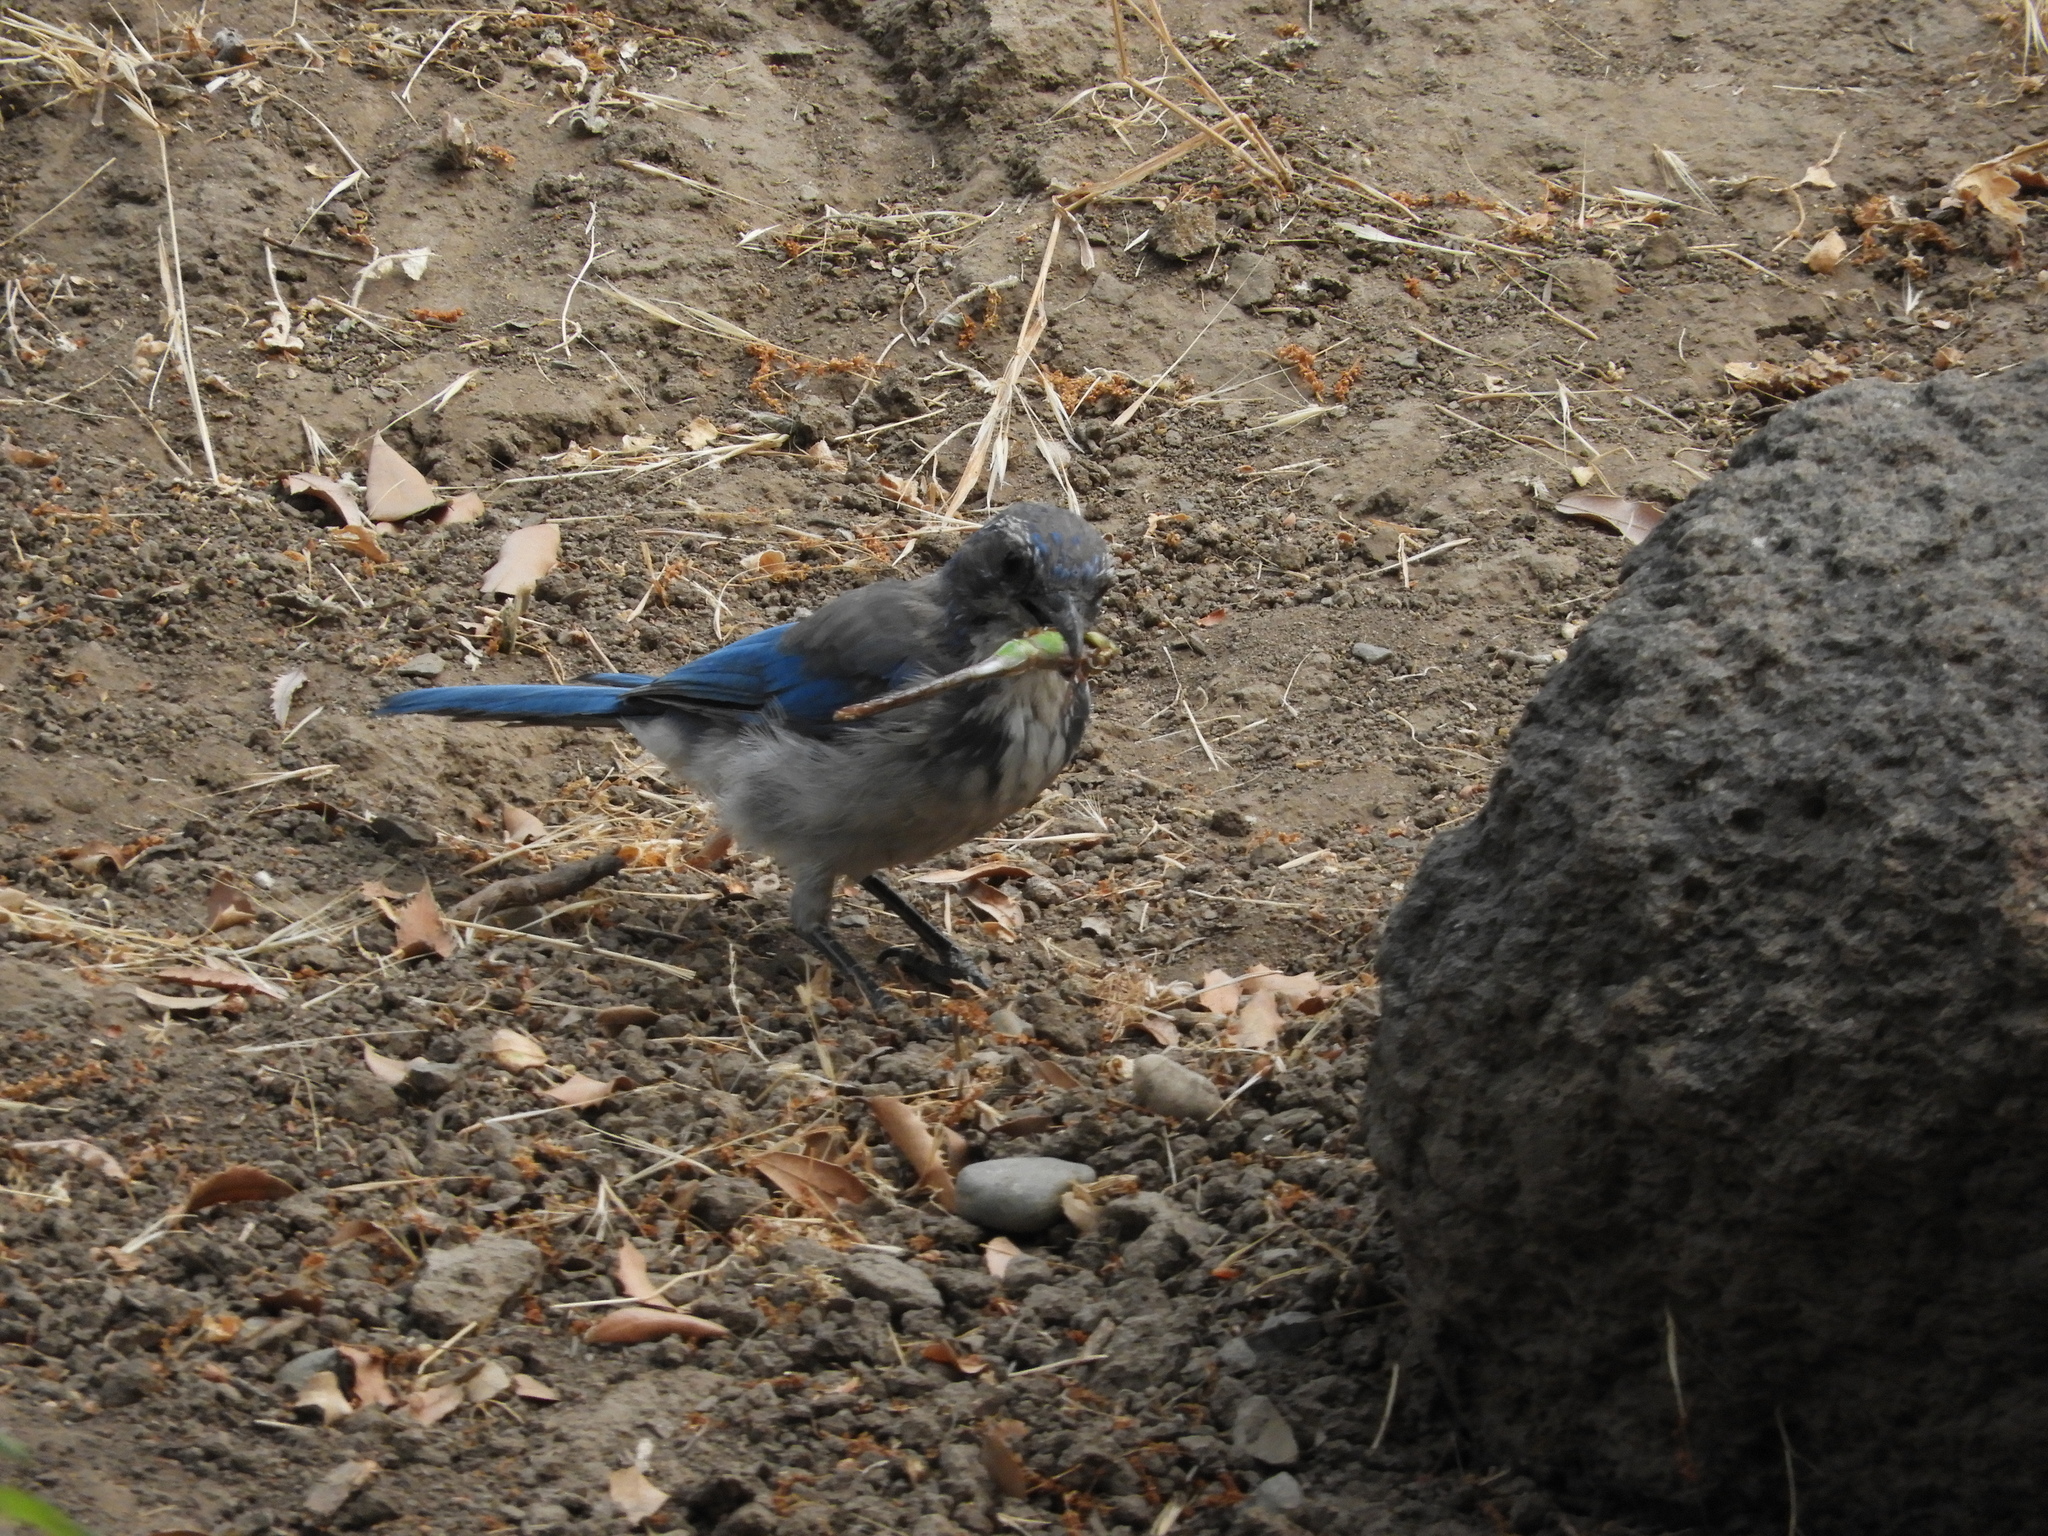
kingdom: Animalia
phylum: Chordata
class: Aves
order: Passeriformes
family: Corvidae
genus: Aphelocoma
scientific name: Aphelocoma californica
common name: California scrub-jay
